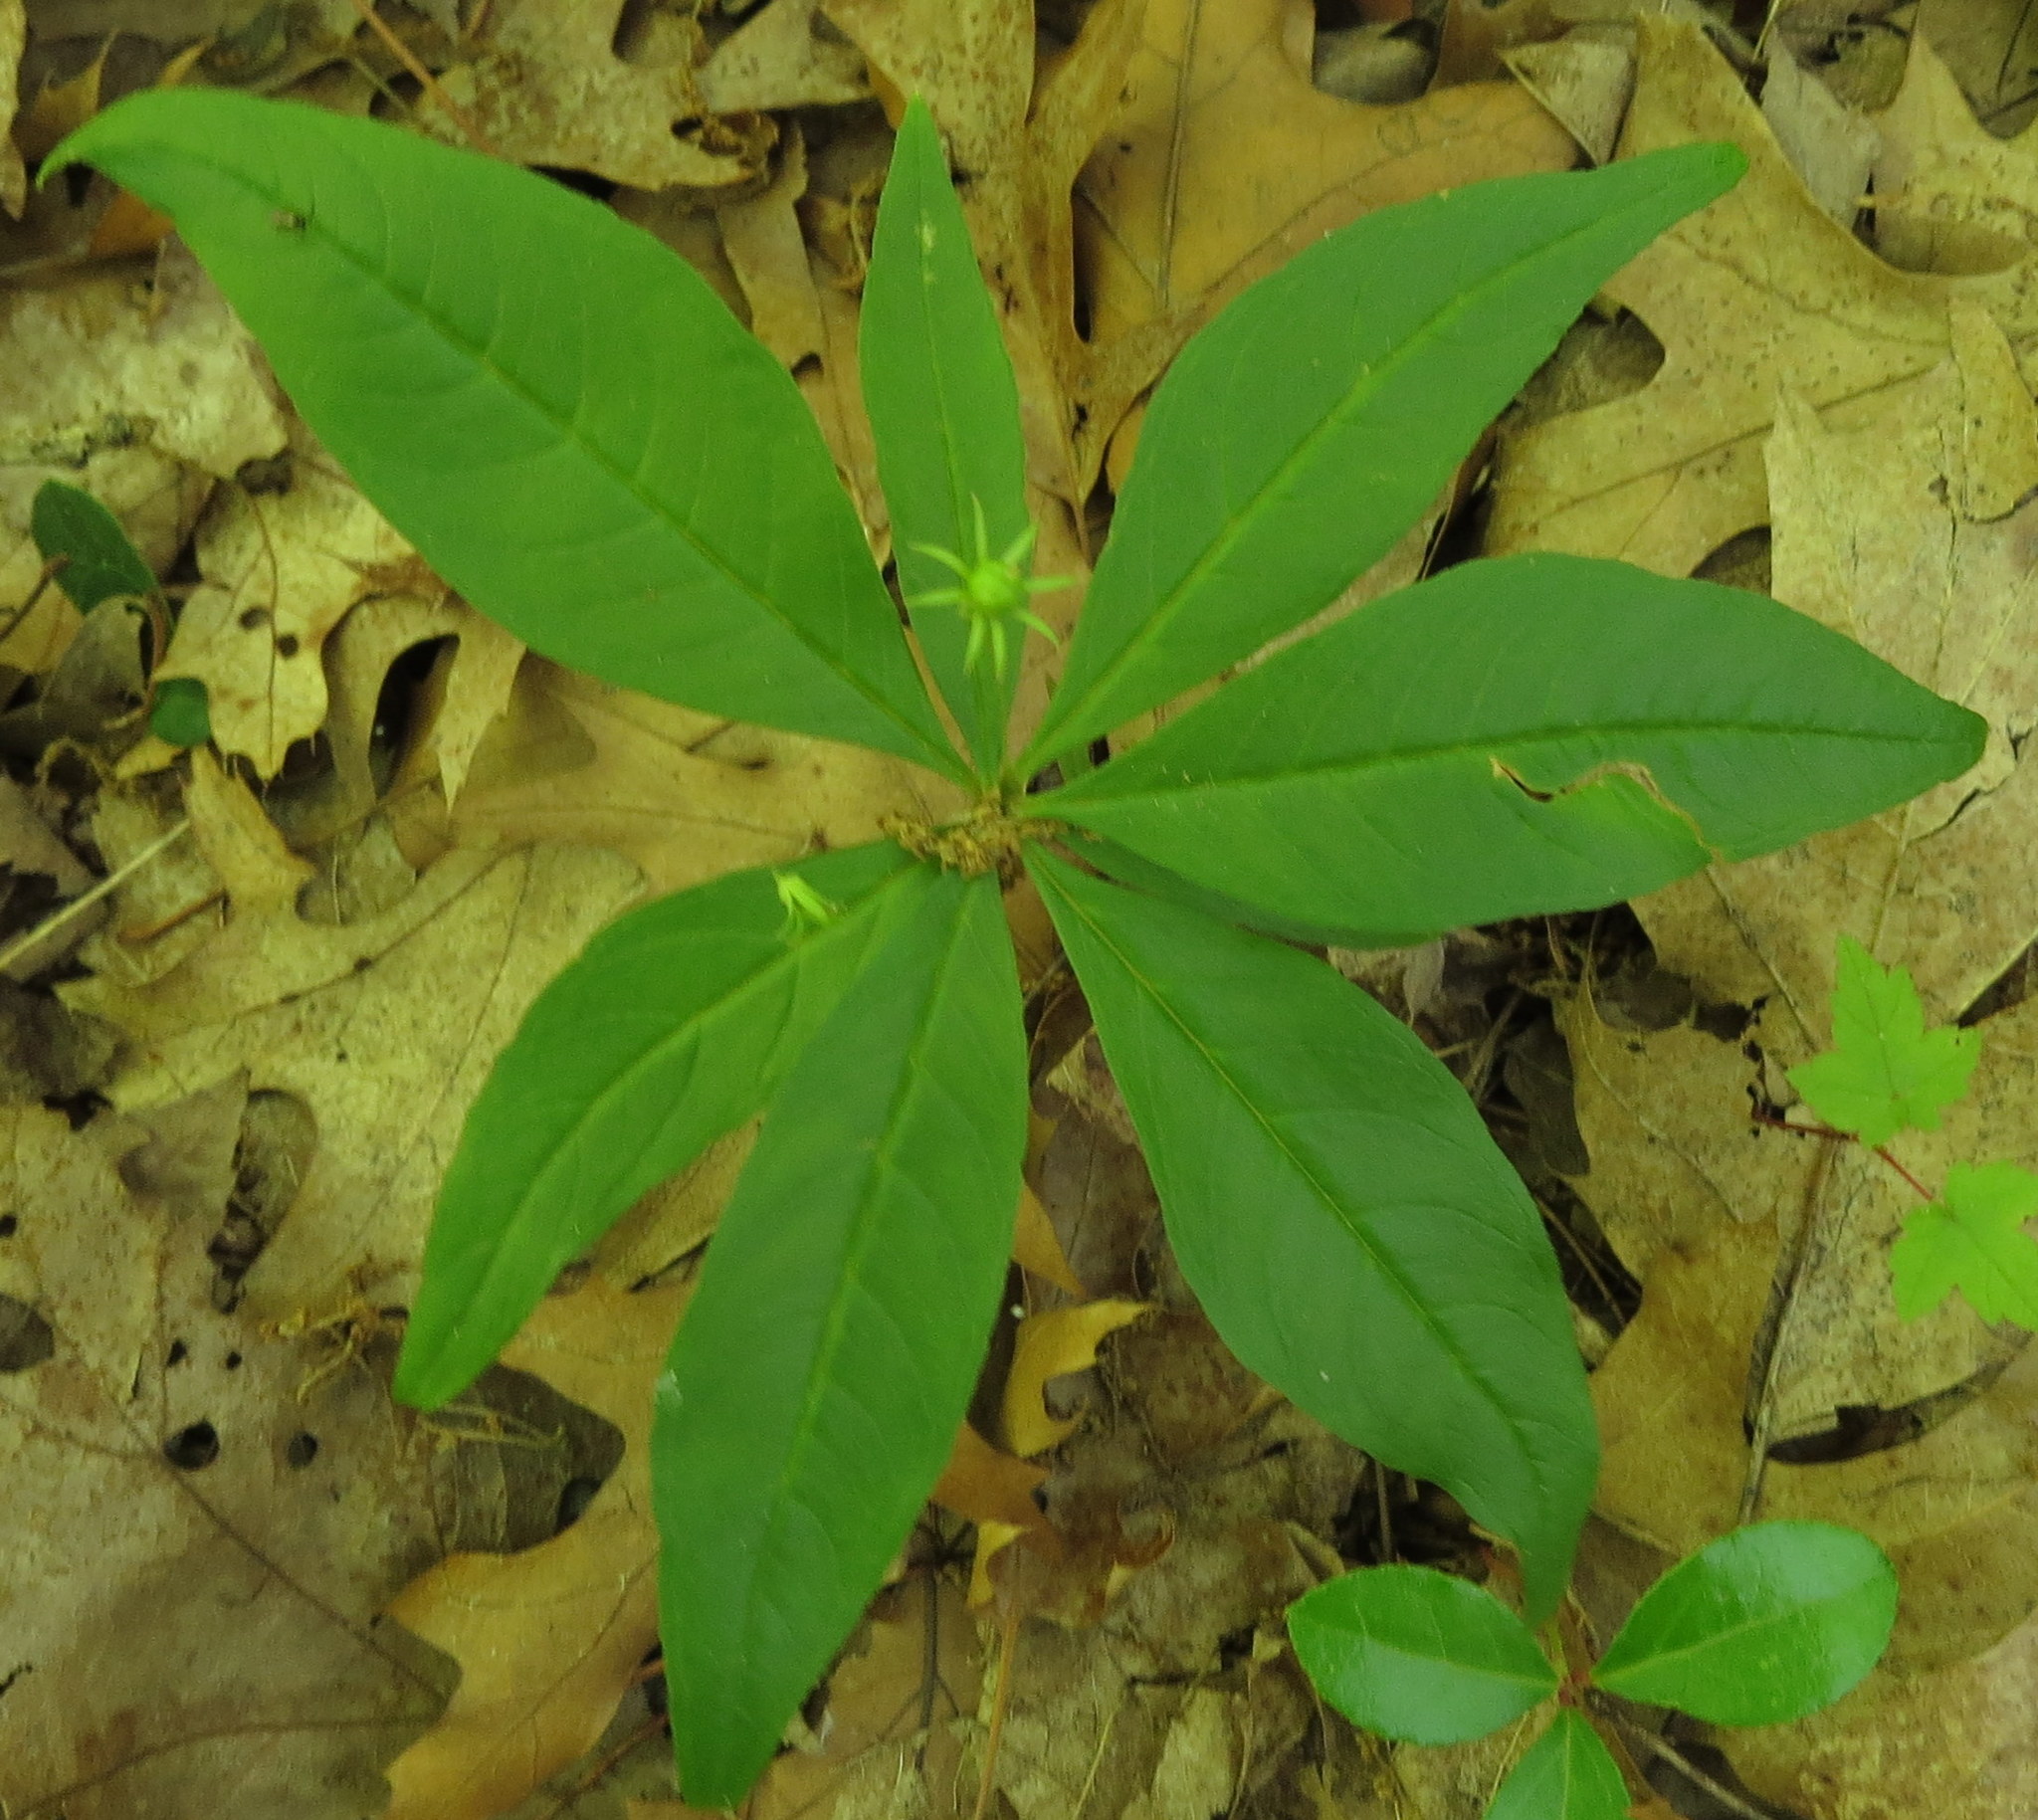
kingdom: Plantae
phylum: Tracheophyta
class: Magnoliopsida
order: Ericales
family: Primulaceae
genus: Lysimachia
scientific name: Lysimachia borealis
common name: American starflower
